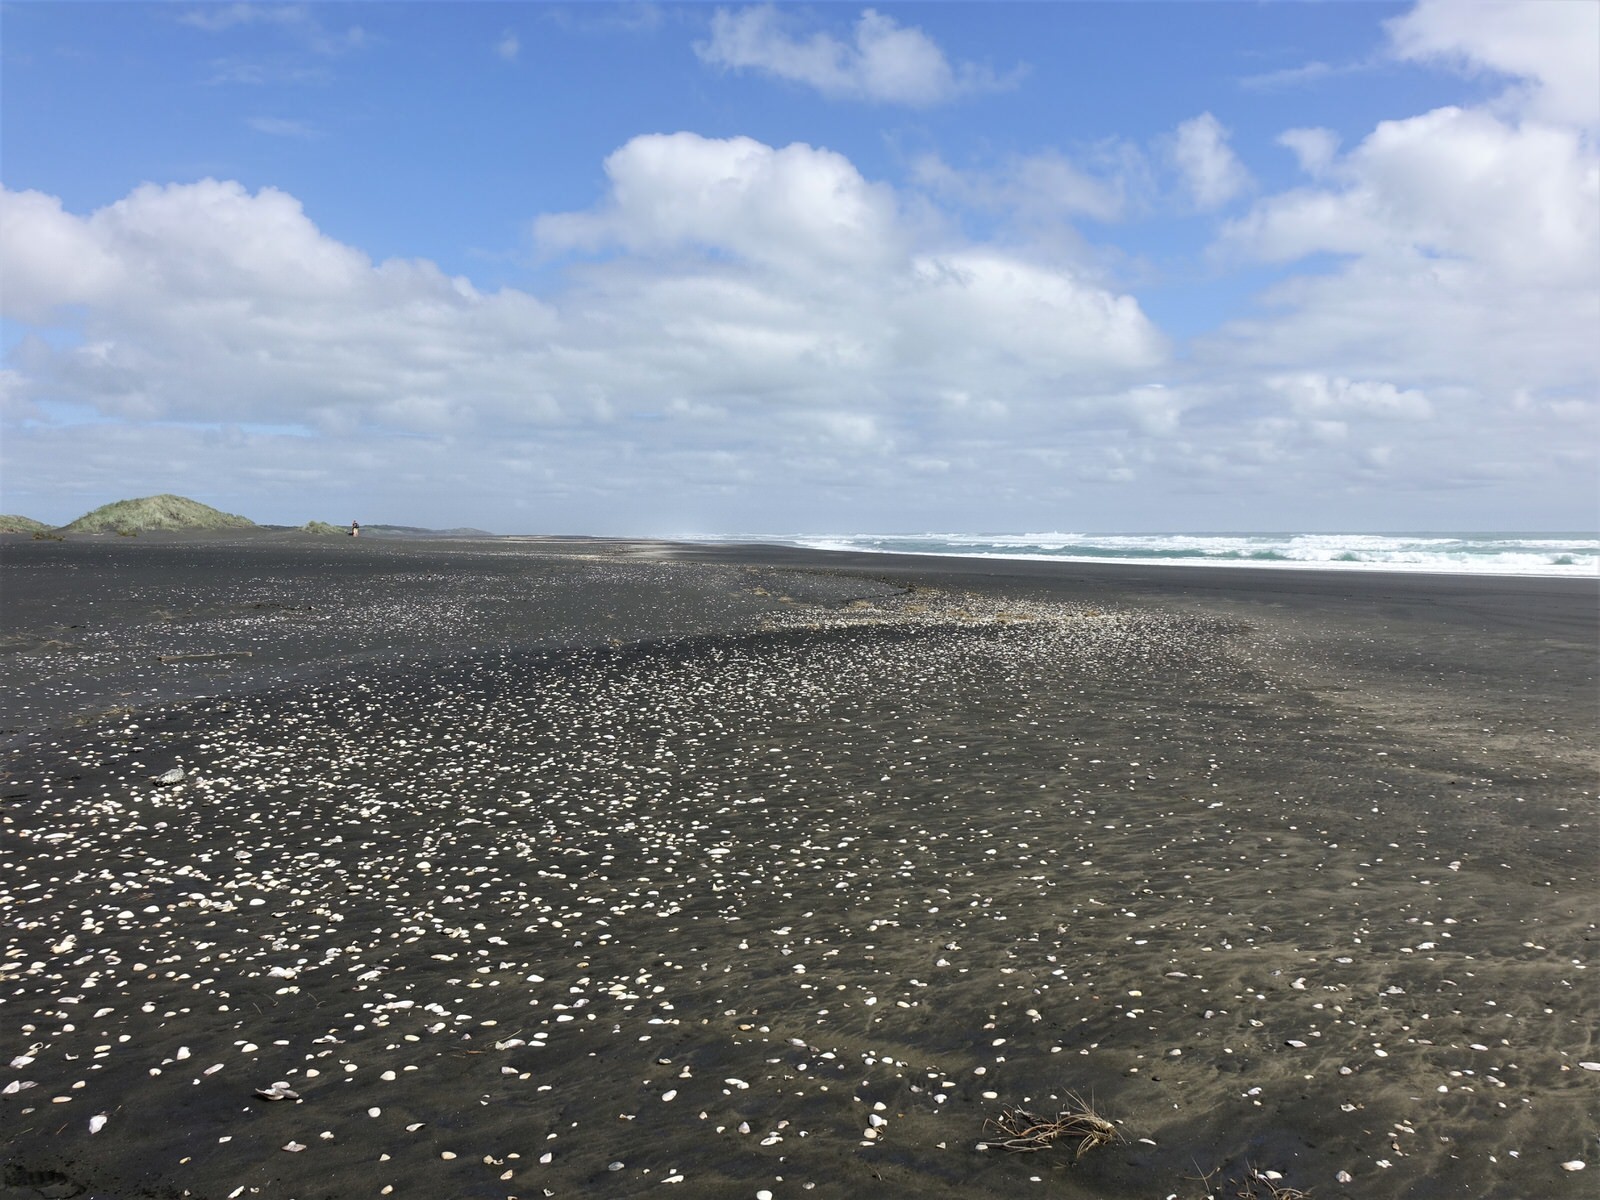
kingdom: Animalia
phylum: Chordata
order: Tetraodontiformes
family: Diodontidae
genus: Allomycterus
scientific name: Allomycterus pilatus
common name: No common name
